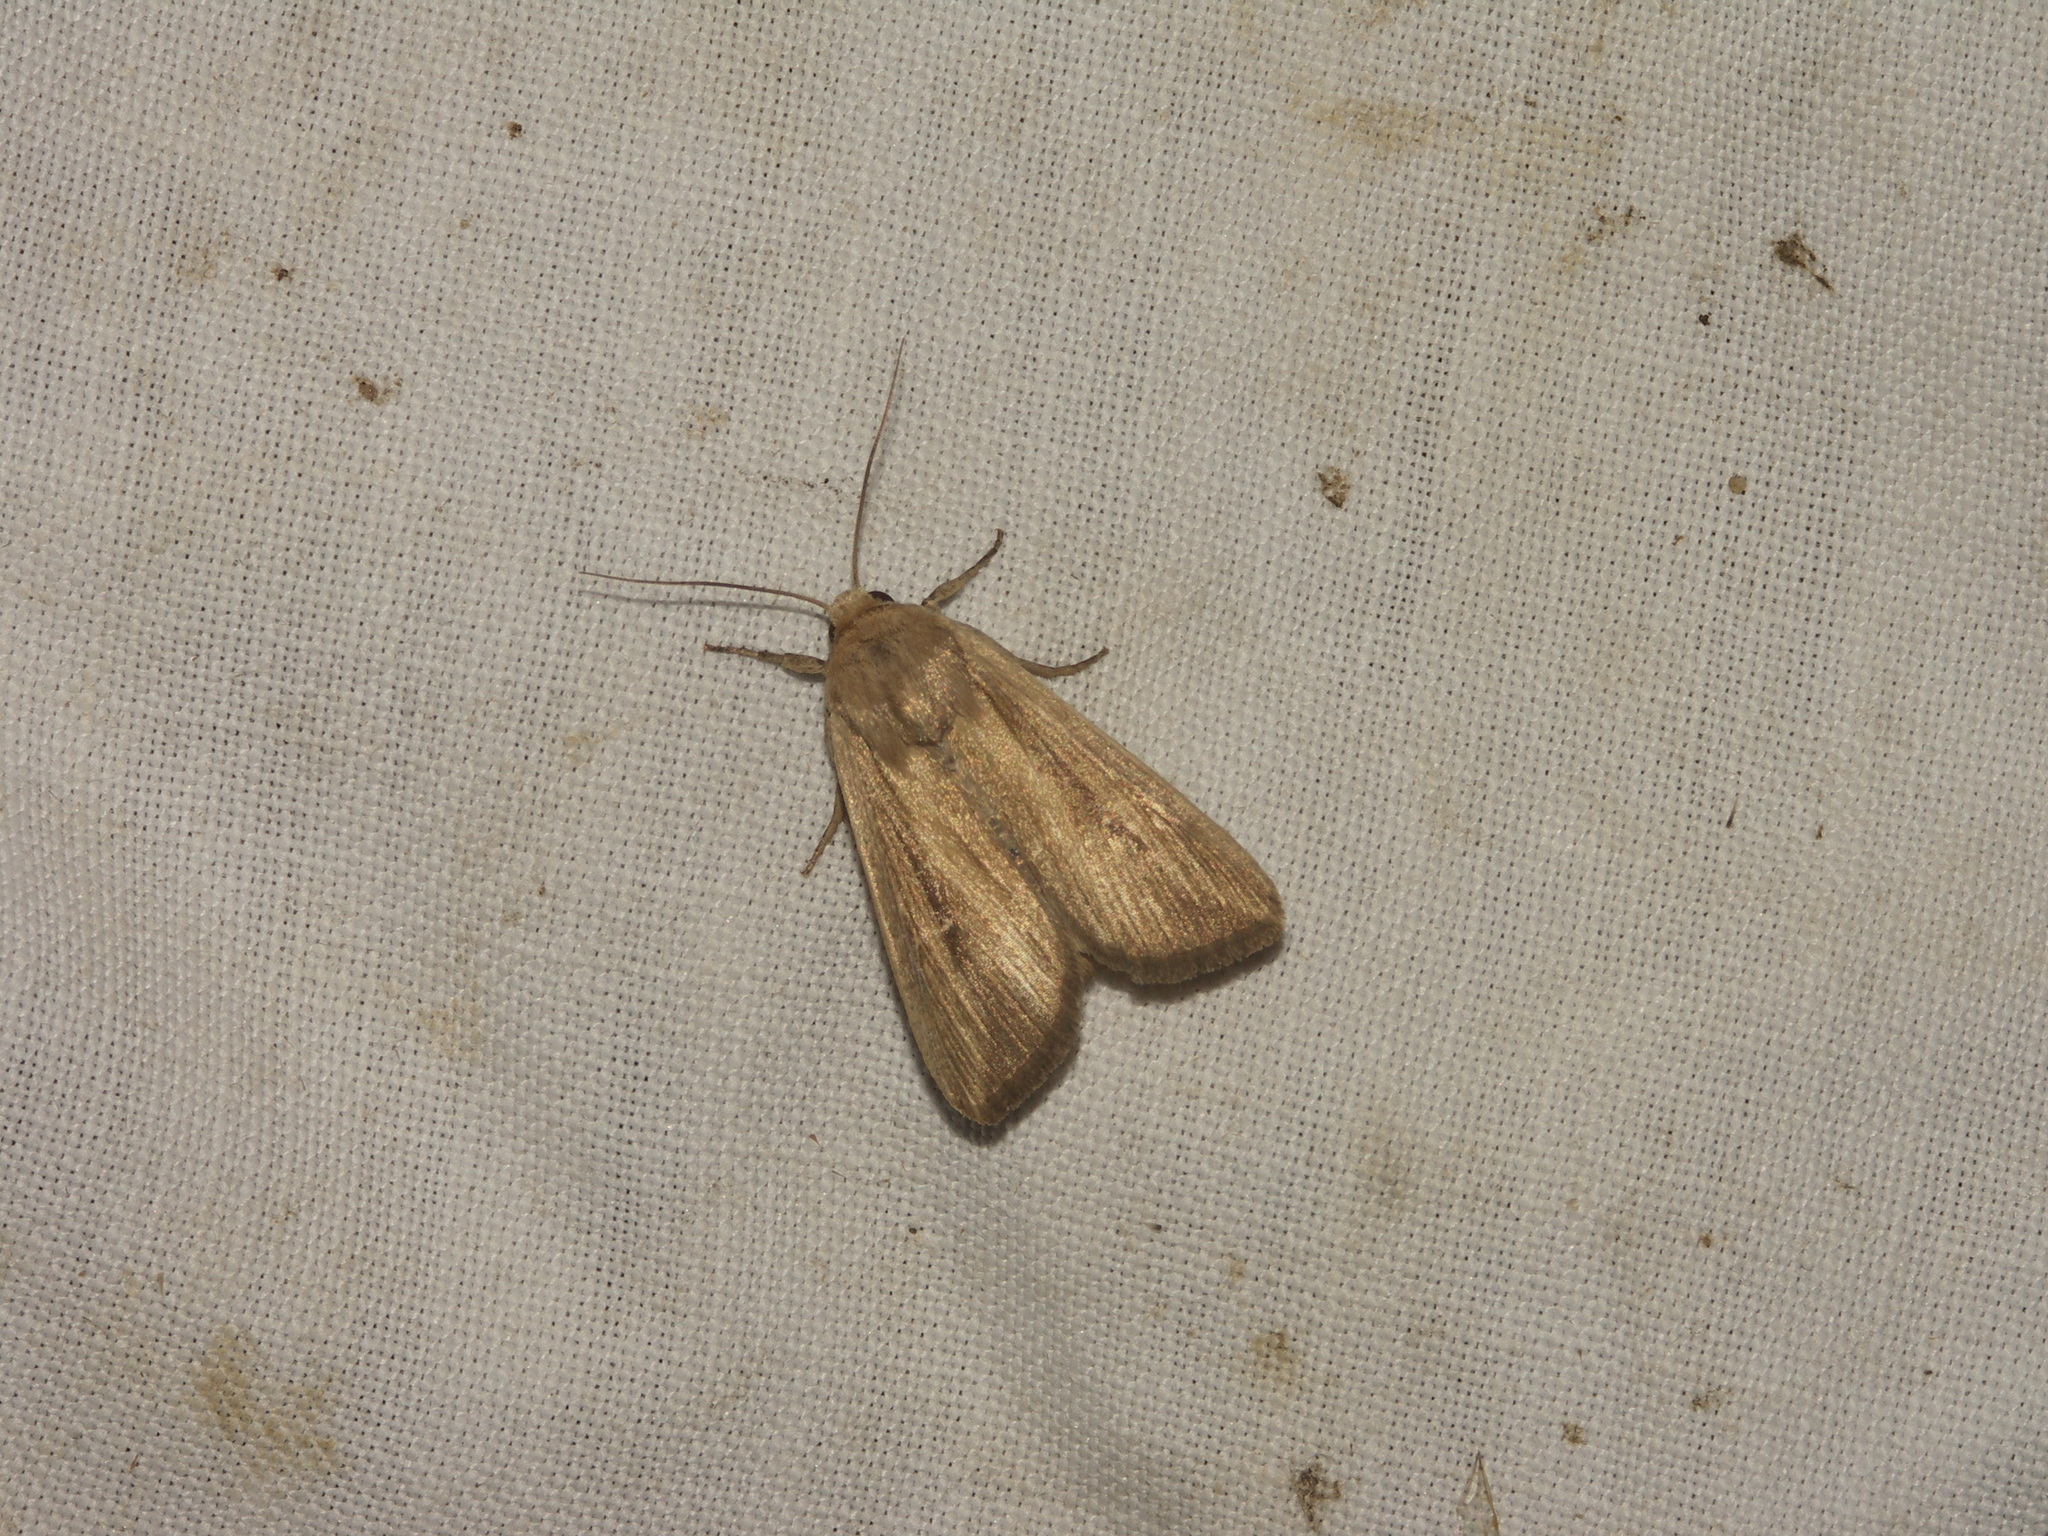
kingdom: Animalia
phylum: Arthropoda
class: Insecta
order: Lepidoptera
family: Noctuidae
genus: Leucania
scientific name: Leucania loreyi
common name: The cosmopolitan
